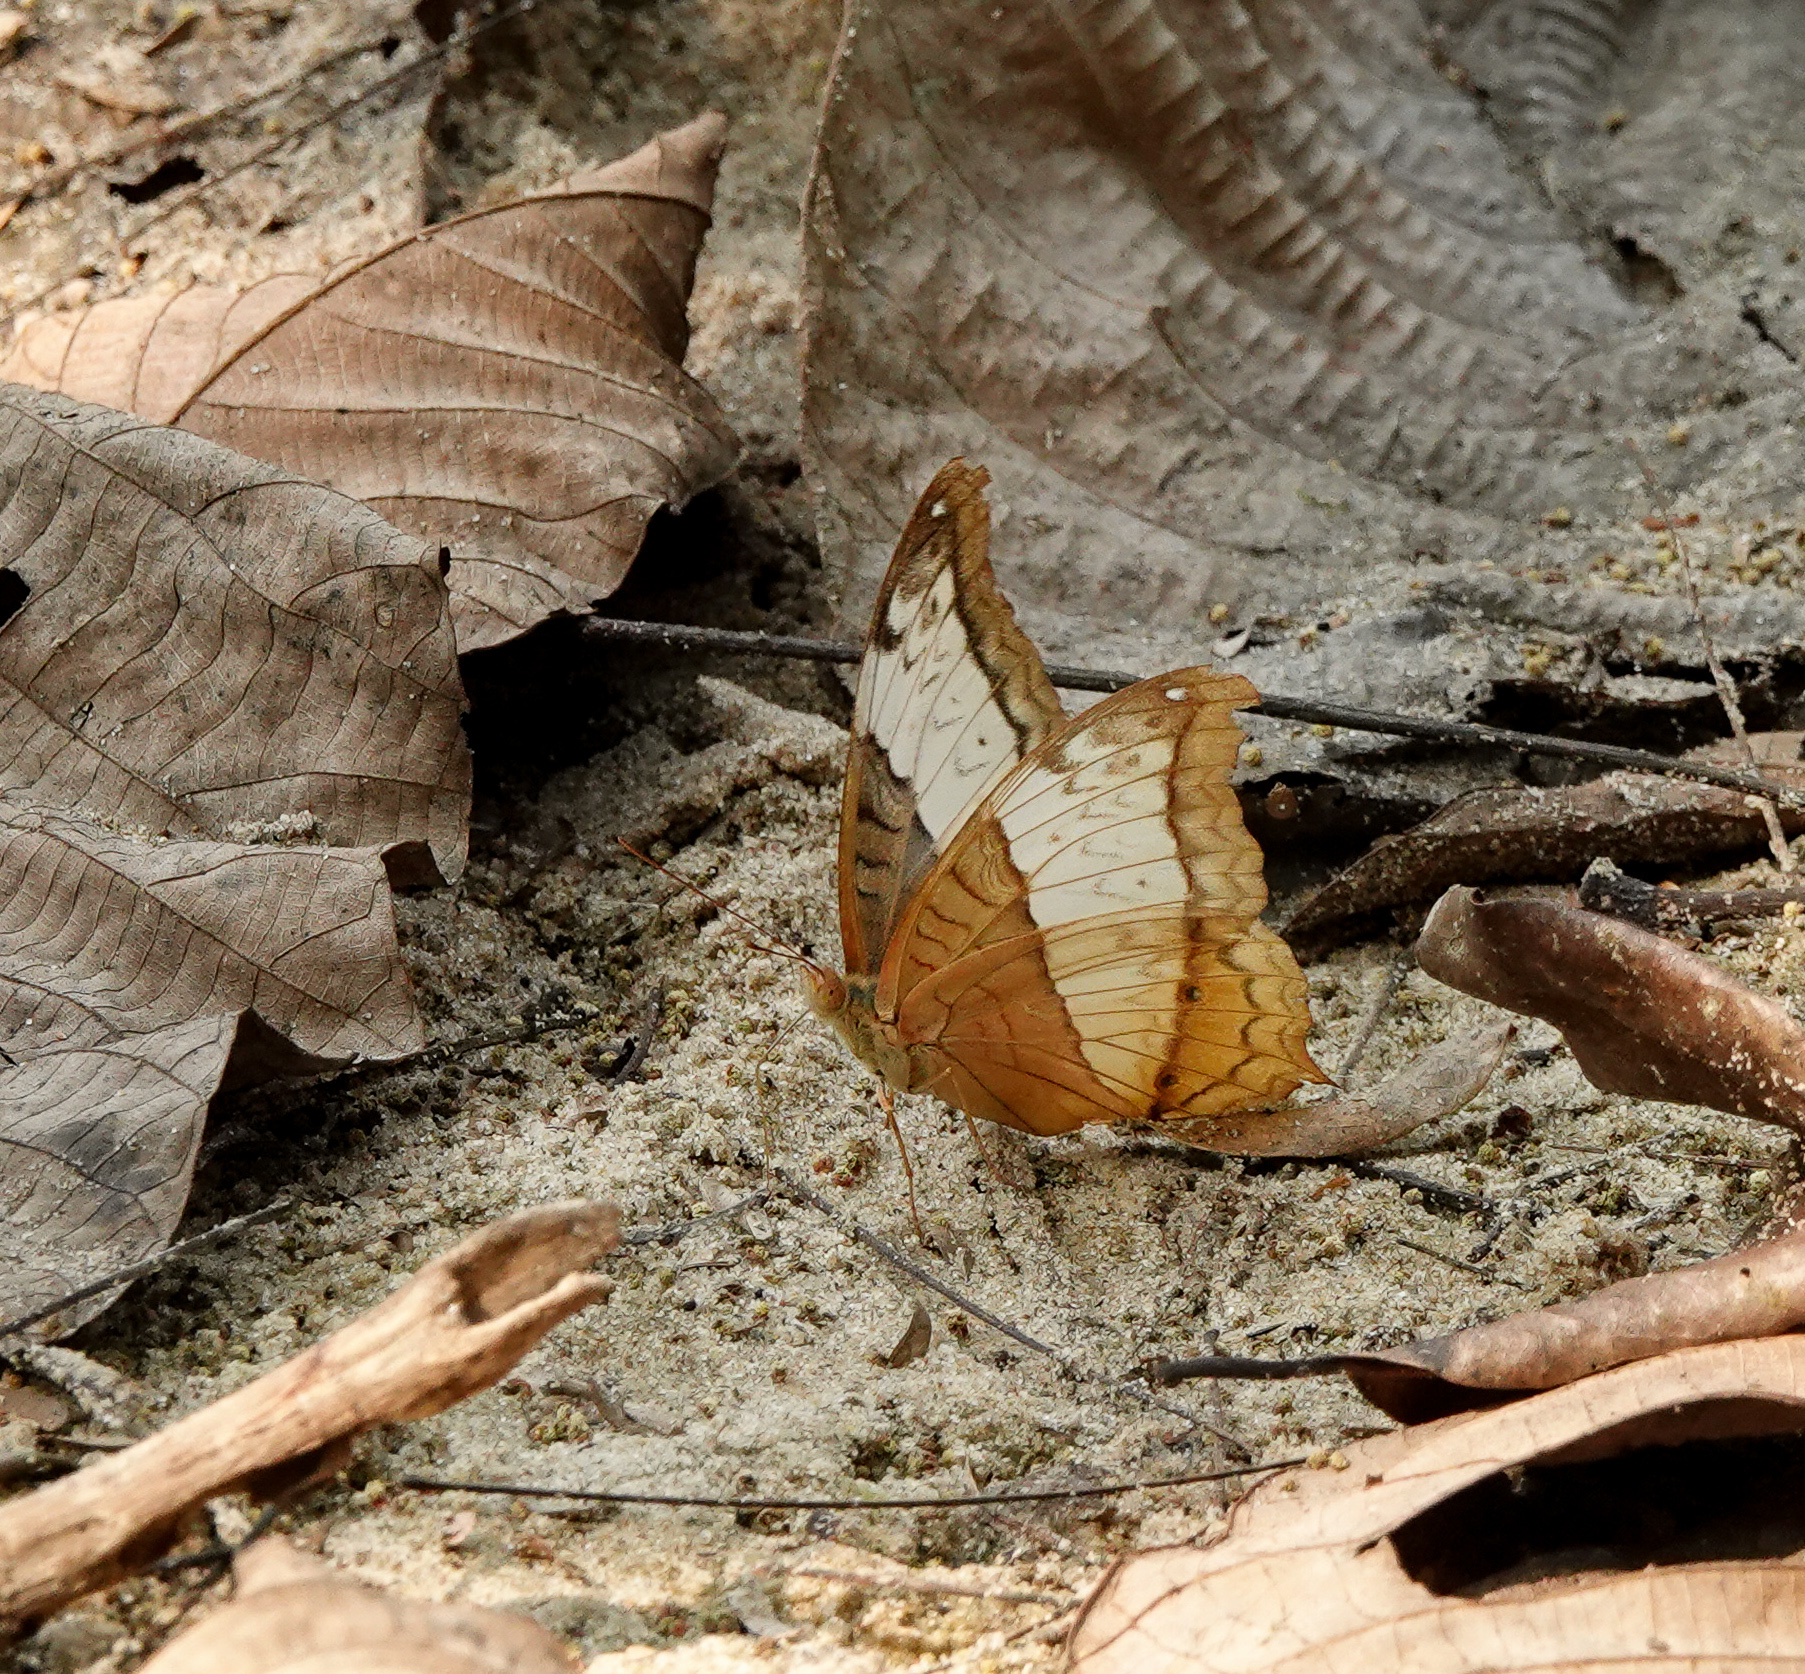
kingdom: Animalia
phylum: Arthropoda
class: Insecta
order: Lepidoptera
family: Nymphalidae
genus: Vindula
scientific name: Vindula erota
